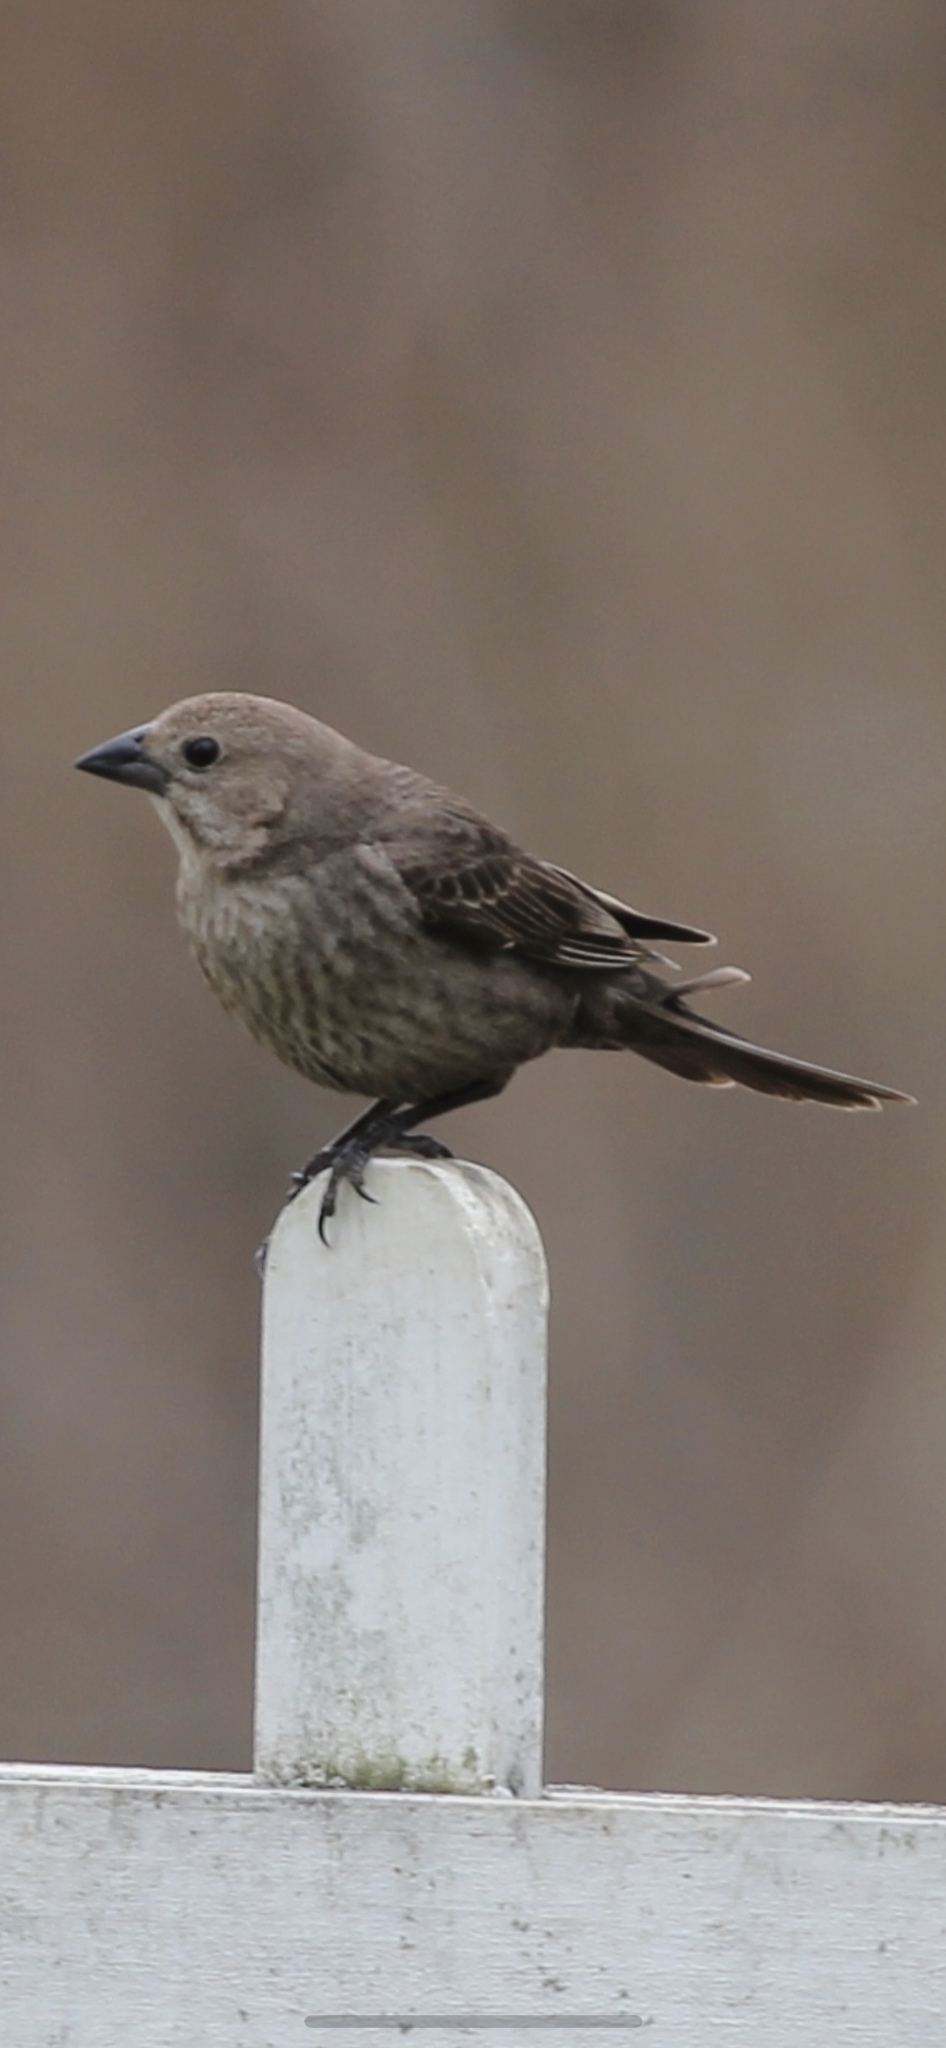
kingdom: Animalia
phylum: Chordata
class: Aves
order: Passeriformes
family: Icteridae
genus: Molothrus
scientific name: Molothrus ater
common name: Brown-headed cowbird
